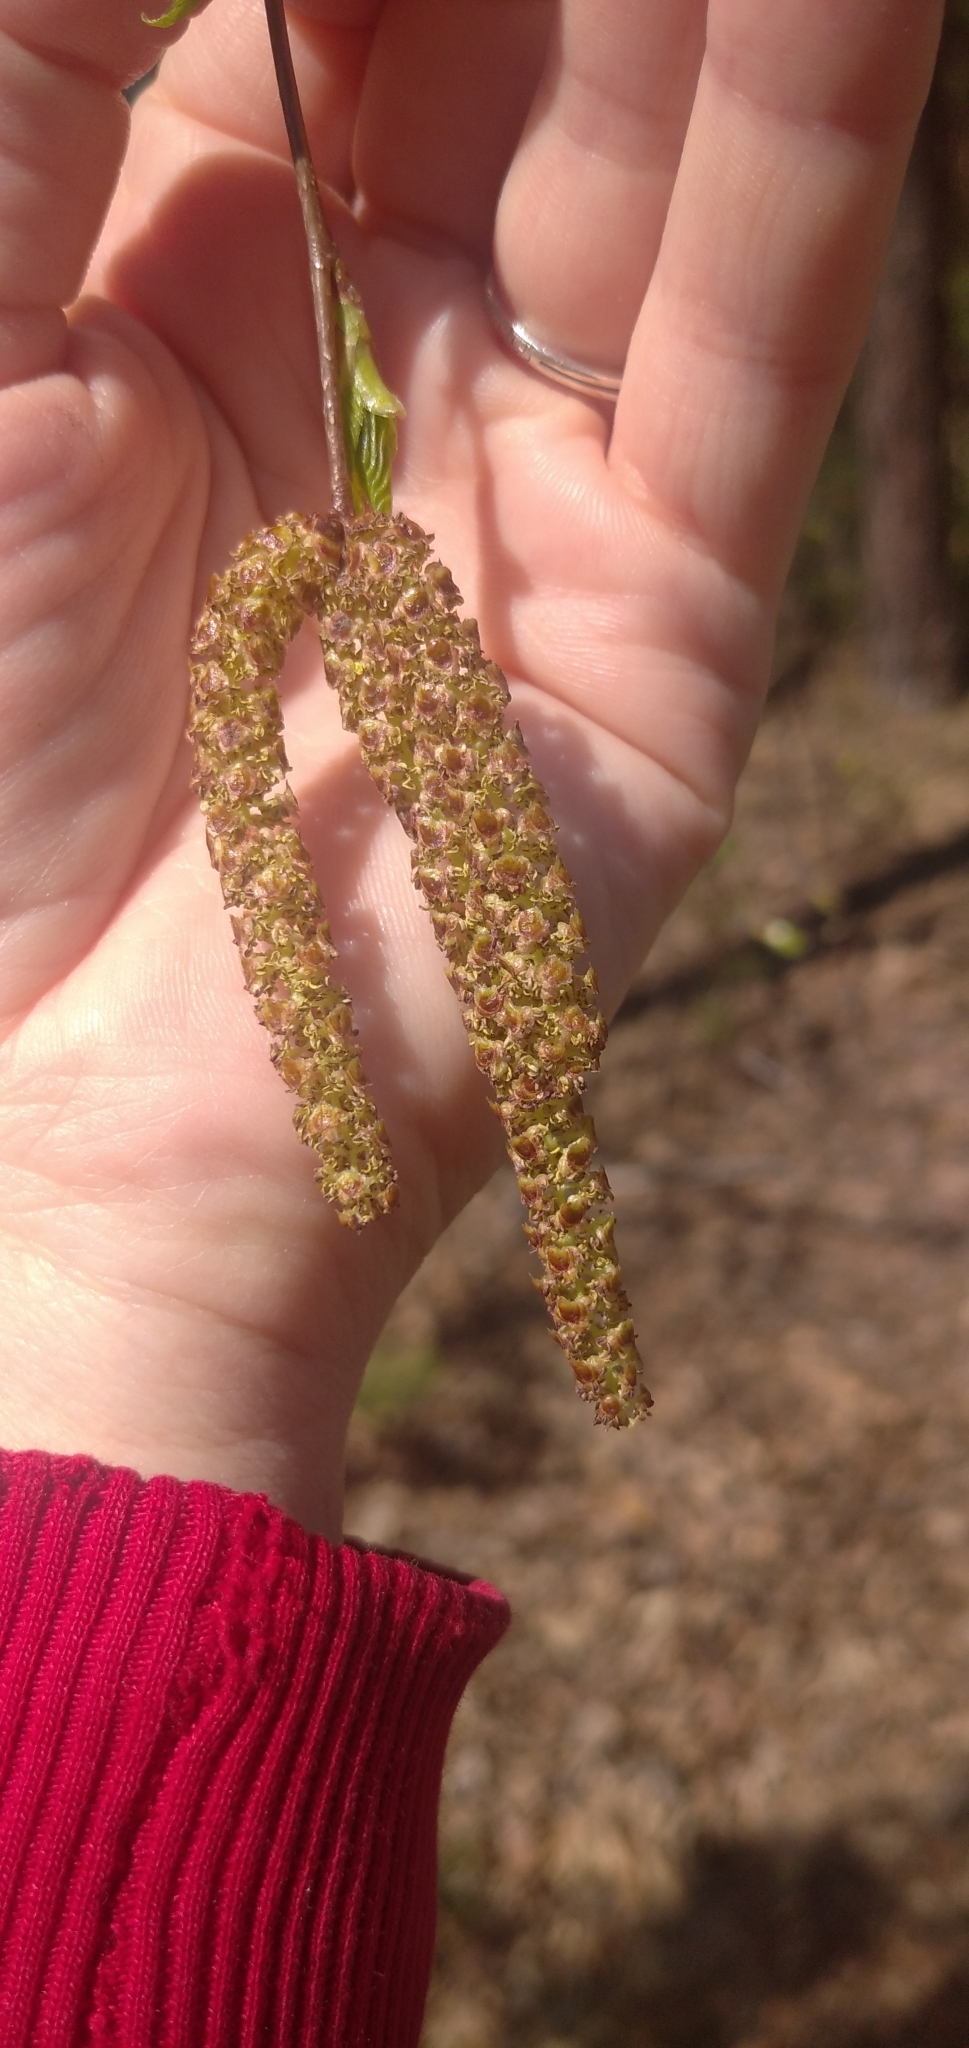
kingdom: Plantae
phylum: Tracheophyta
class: Magnoliopsida
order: Fagales
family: Betulaceae
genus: Betula
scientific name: Betula pendula
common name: Silver birch
